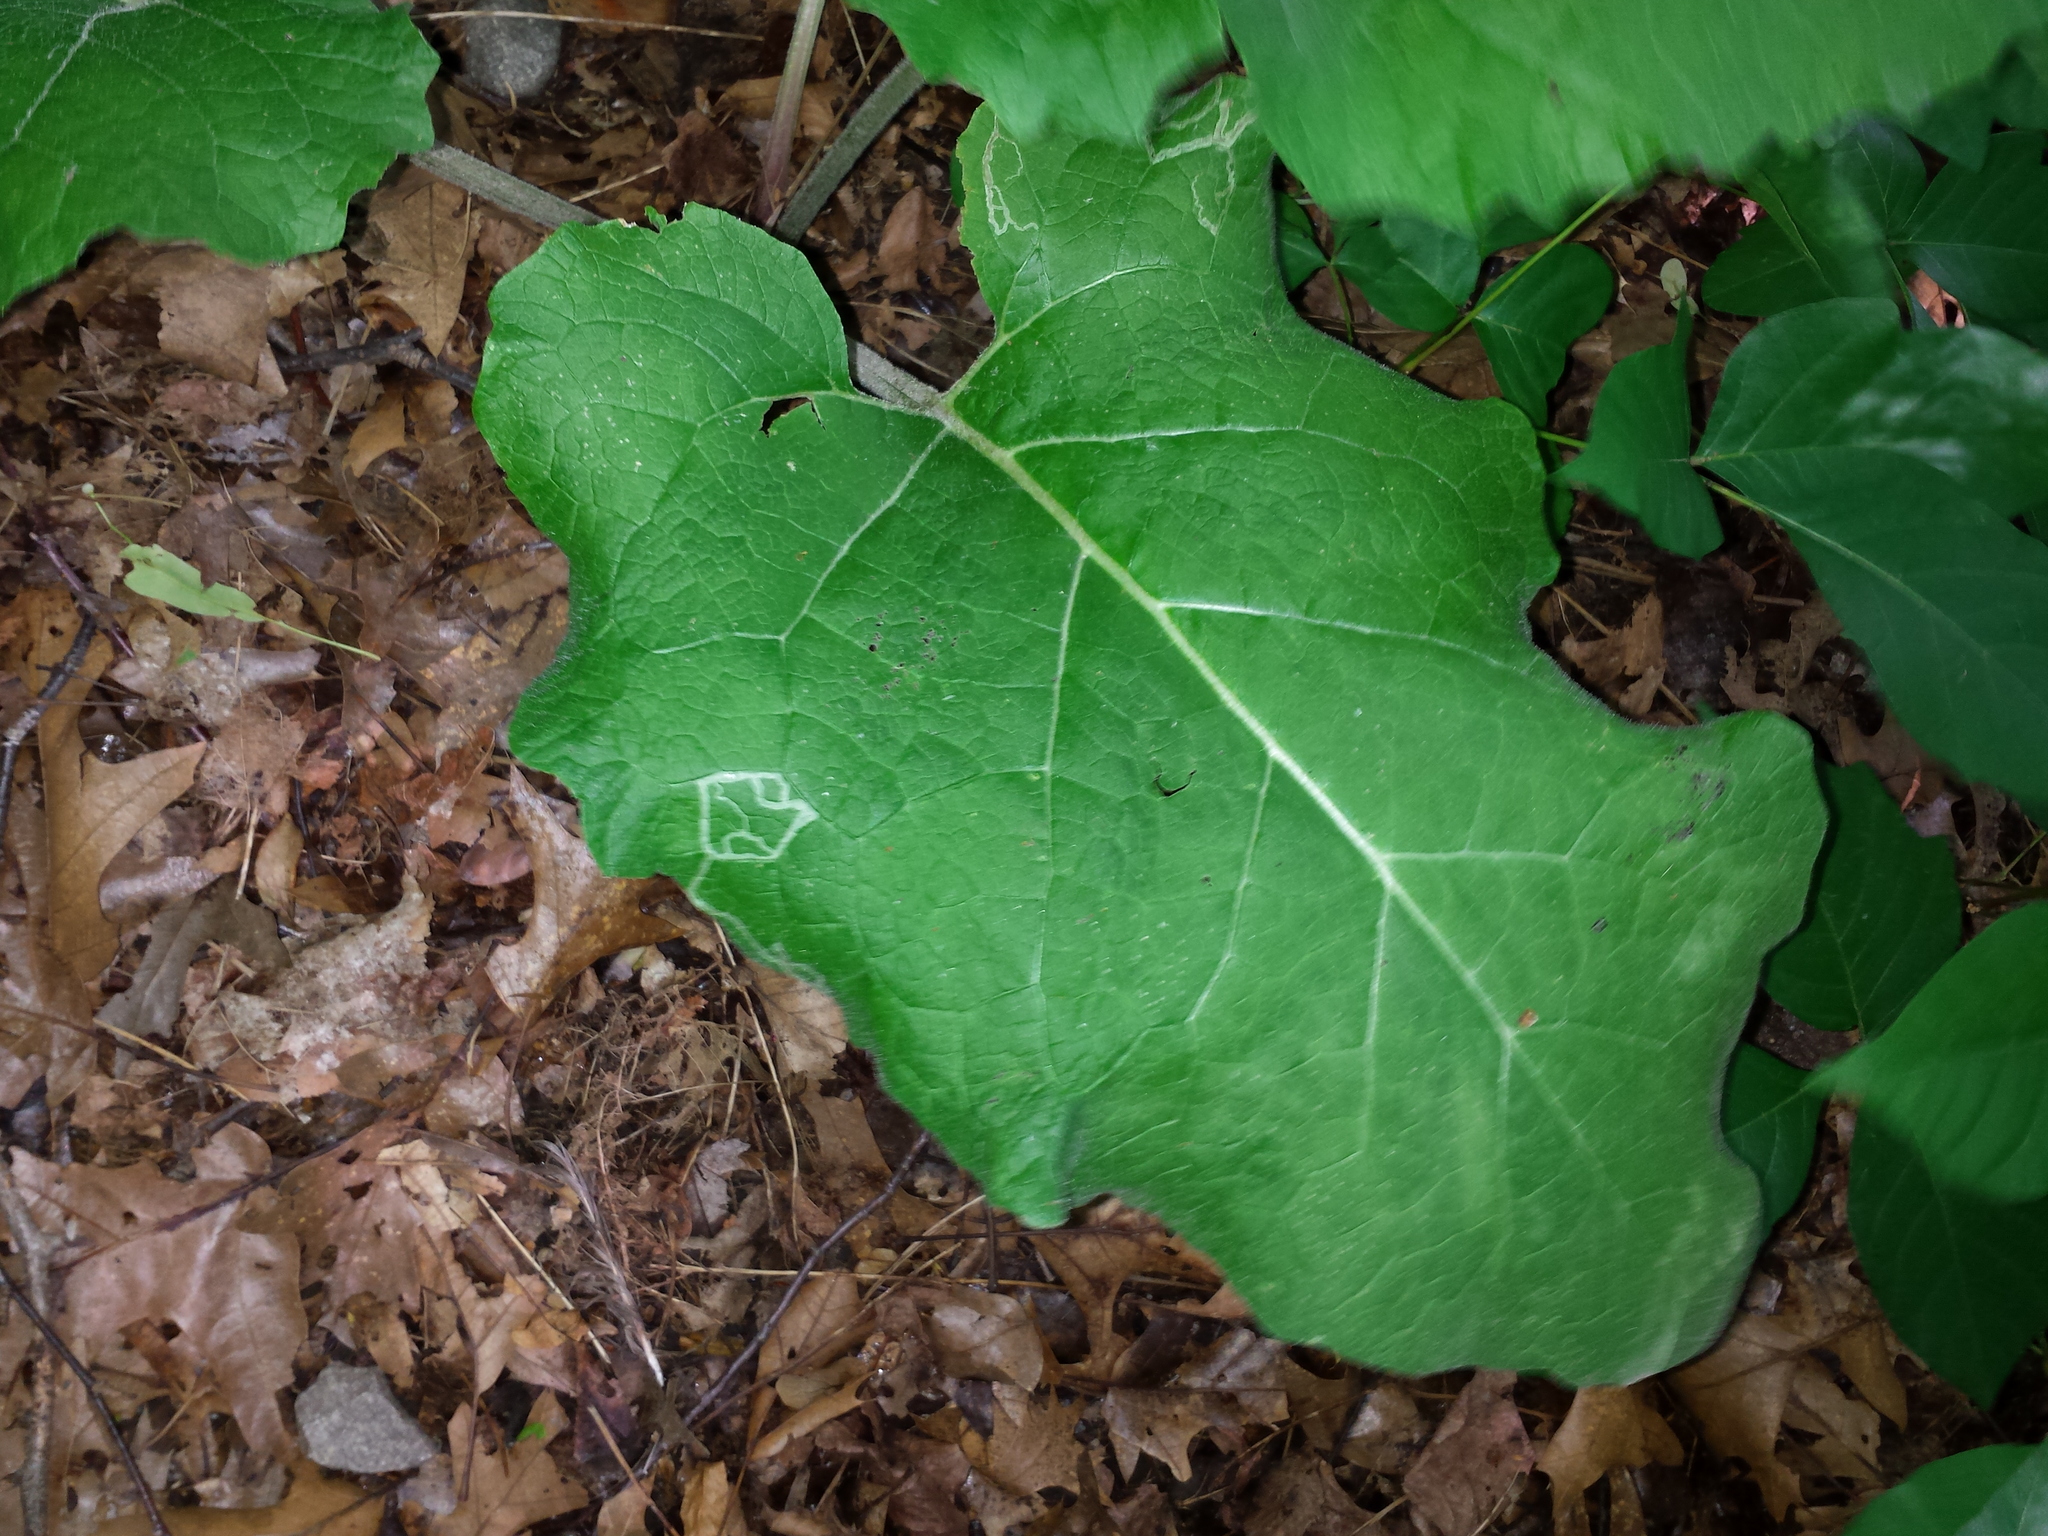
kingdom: Plantae
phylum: Tracheophyta
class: Magnoliopsida
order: Asterales
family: Asteraceae
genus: Arctium
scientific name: Arctium
